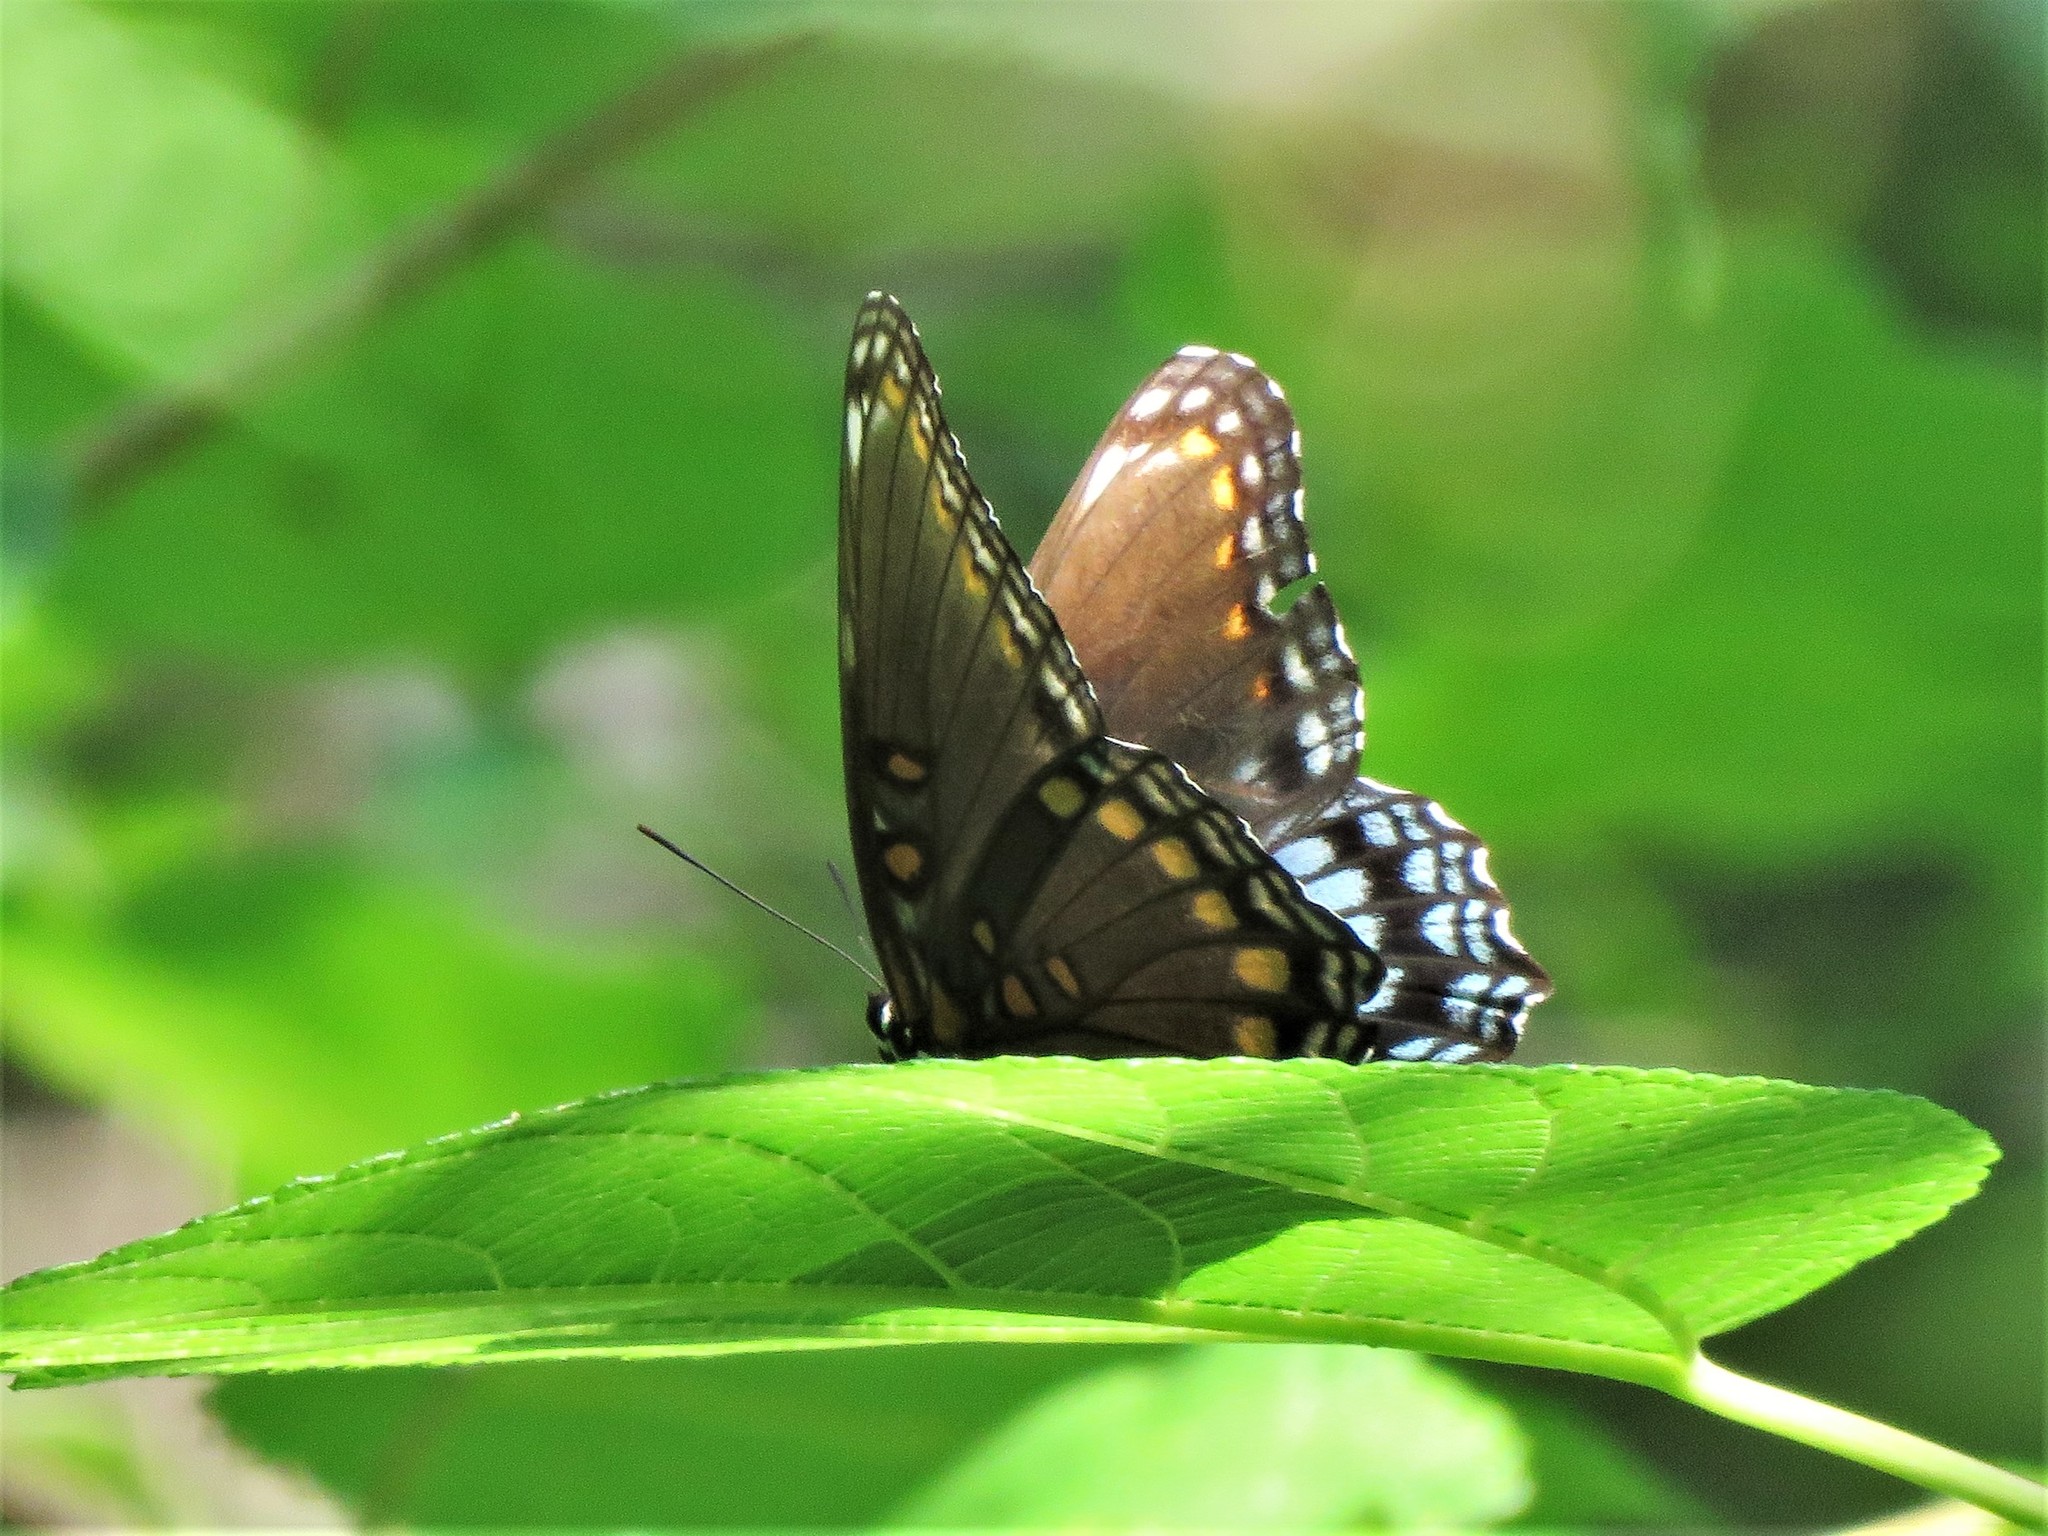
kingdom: Animalia
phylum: Arthropoda
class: Insecta
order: Lepidoptera
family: Nymphalidae
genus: Limenitis
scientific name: Limenitis astyanax
